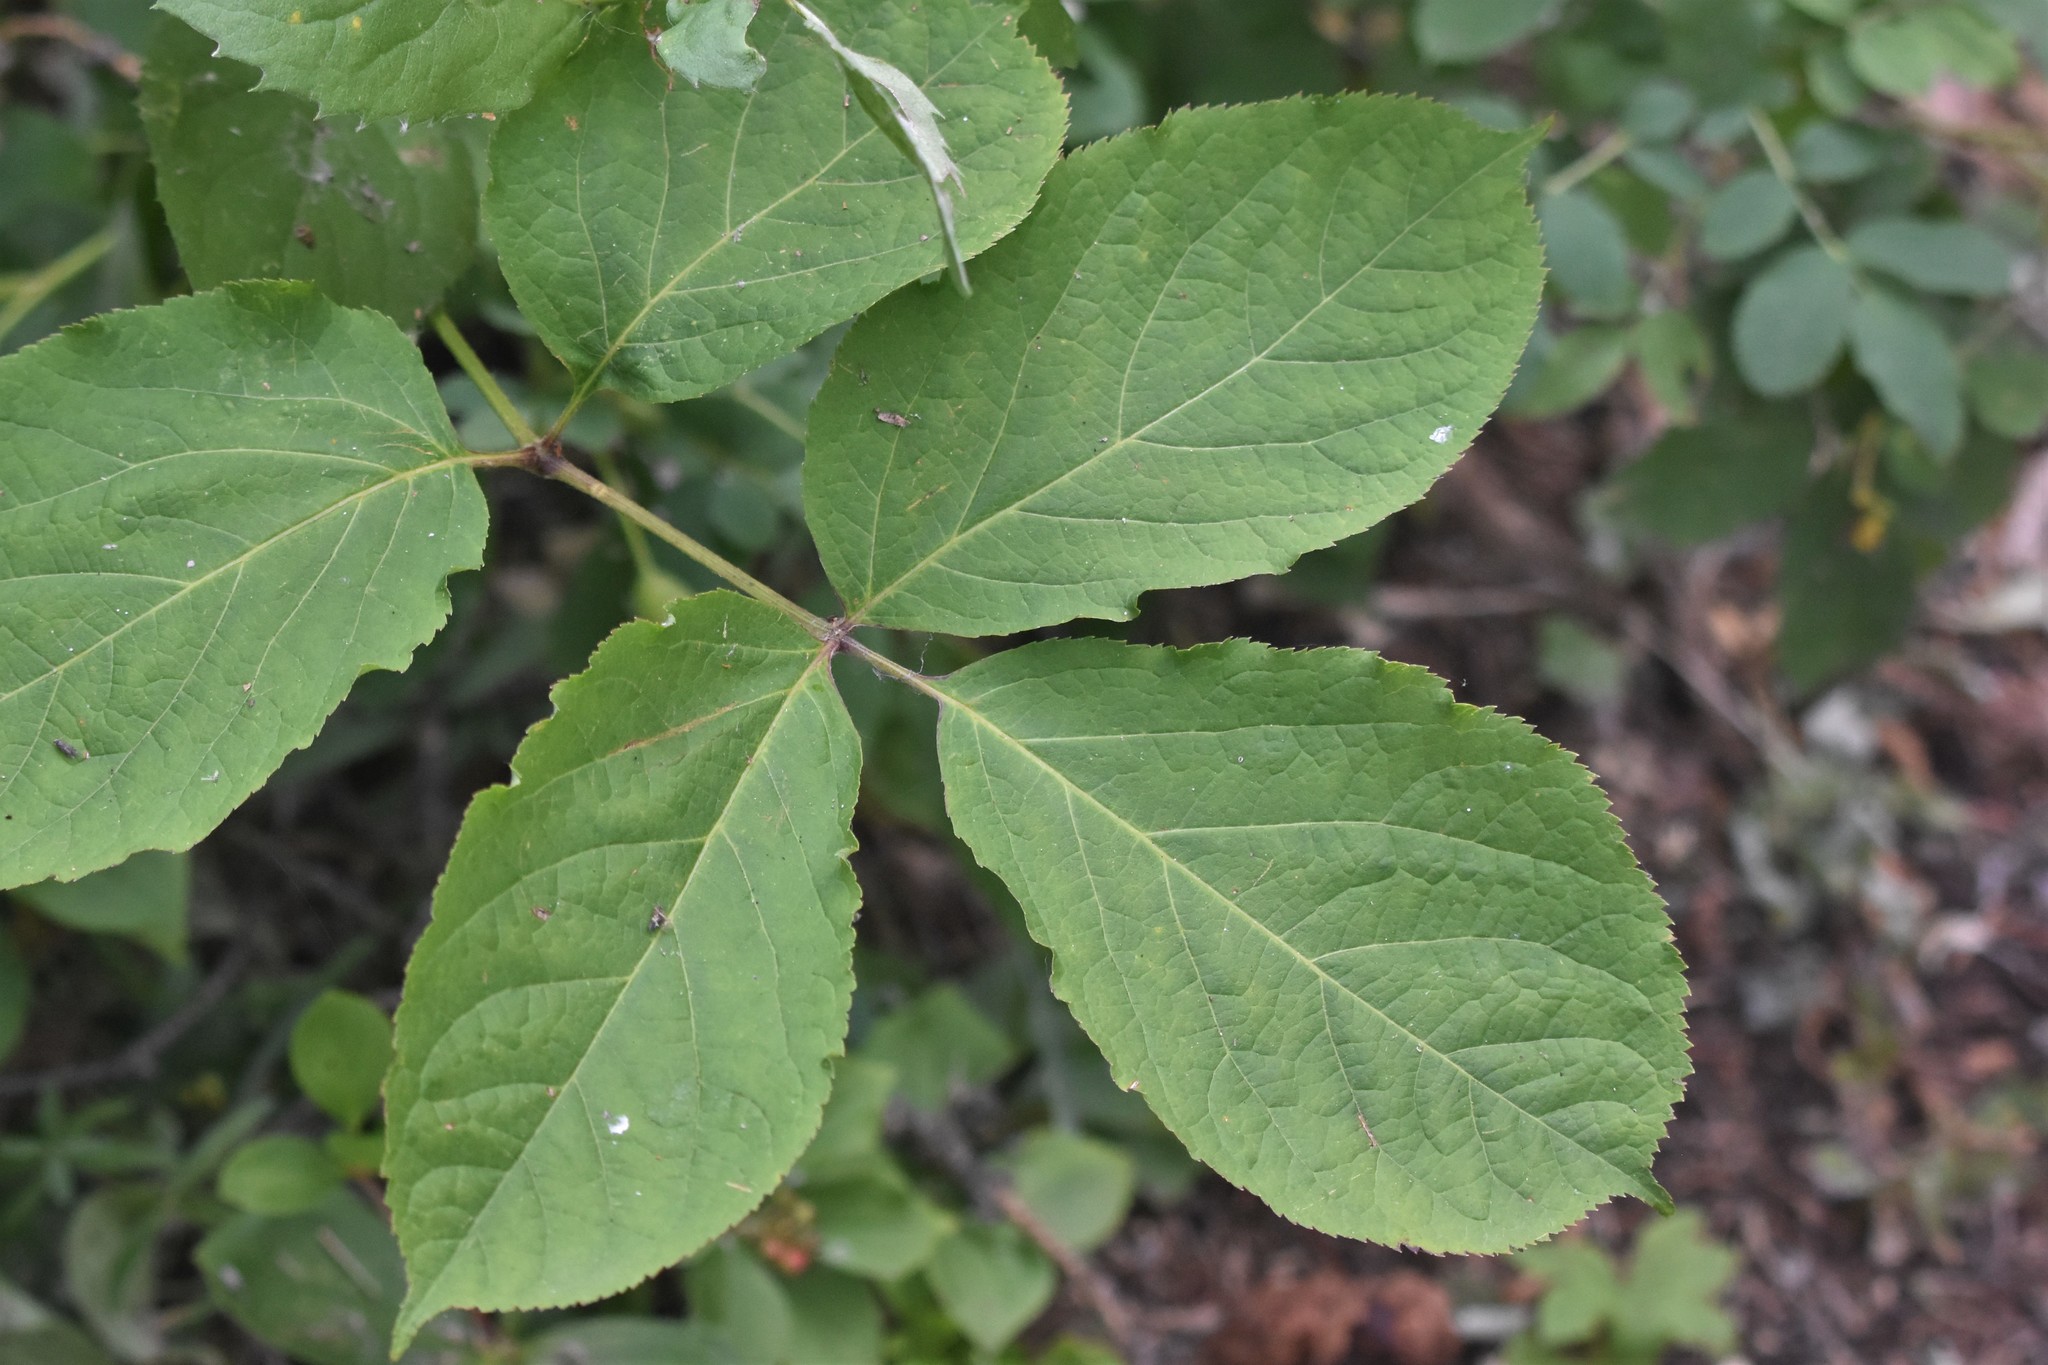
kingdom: Plantae
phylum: Tracheophyta
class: Magnoliopsida
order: Apiales
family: Araliaceae
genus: Aralia
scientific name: Aralia nudicaulis
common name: Wild sarsaparilla
